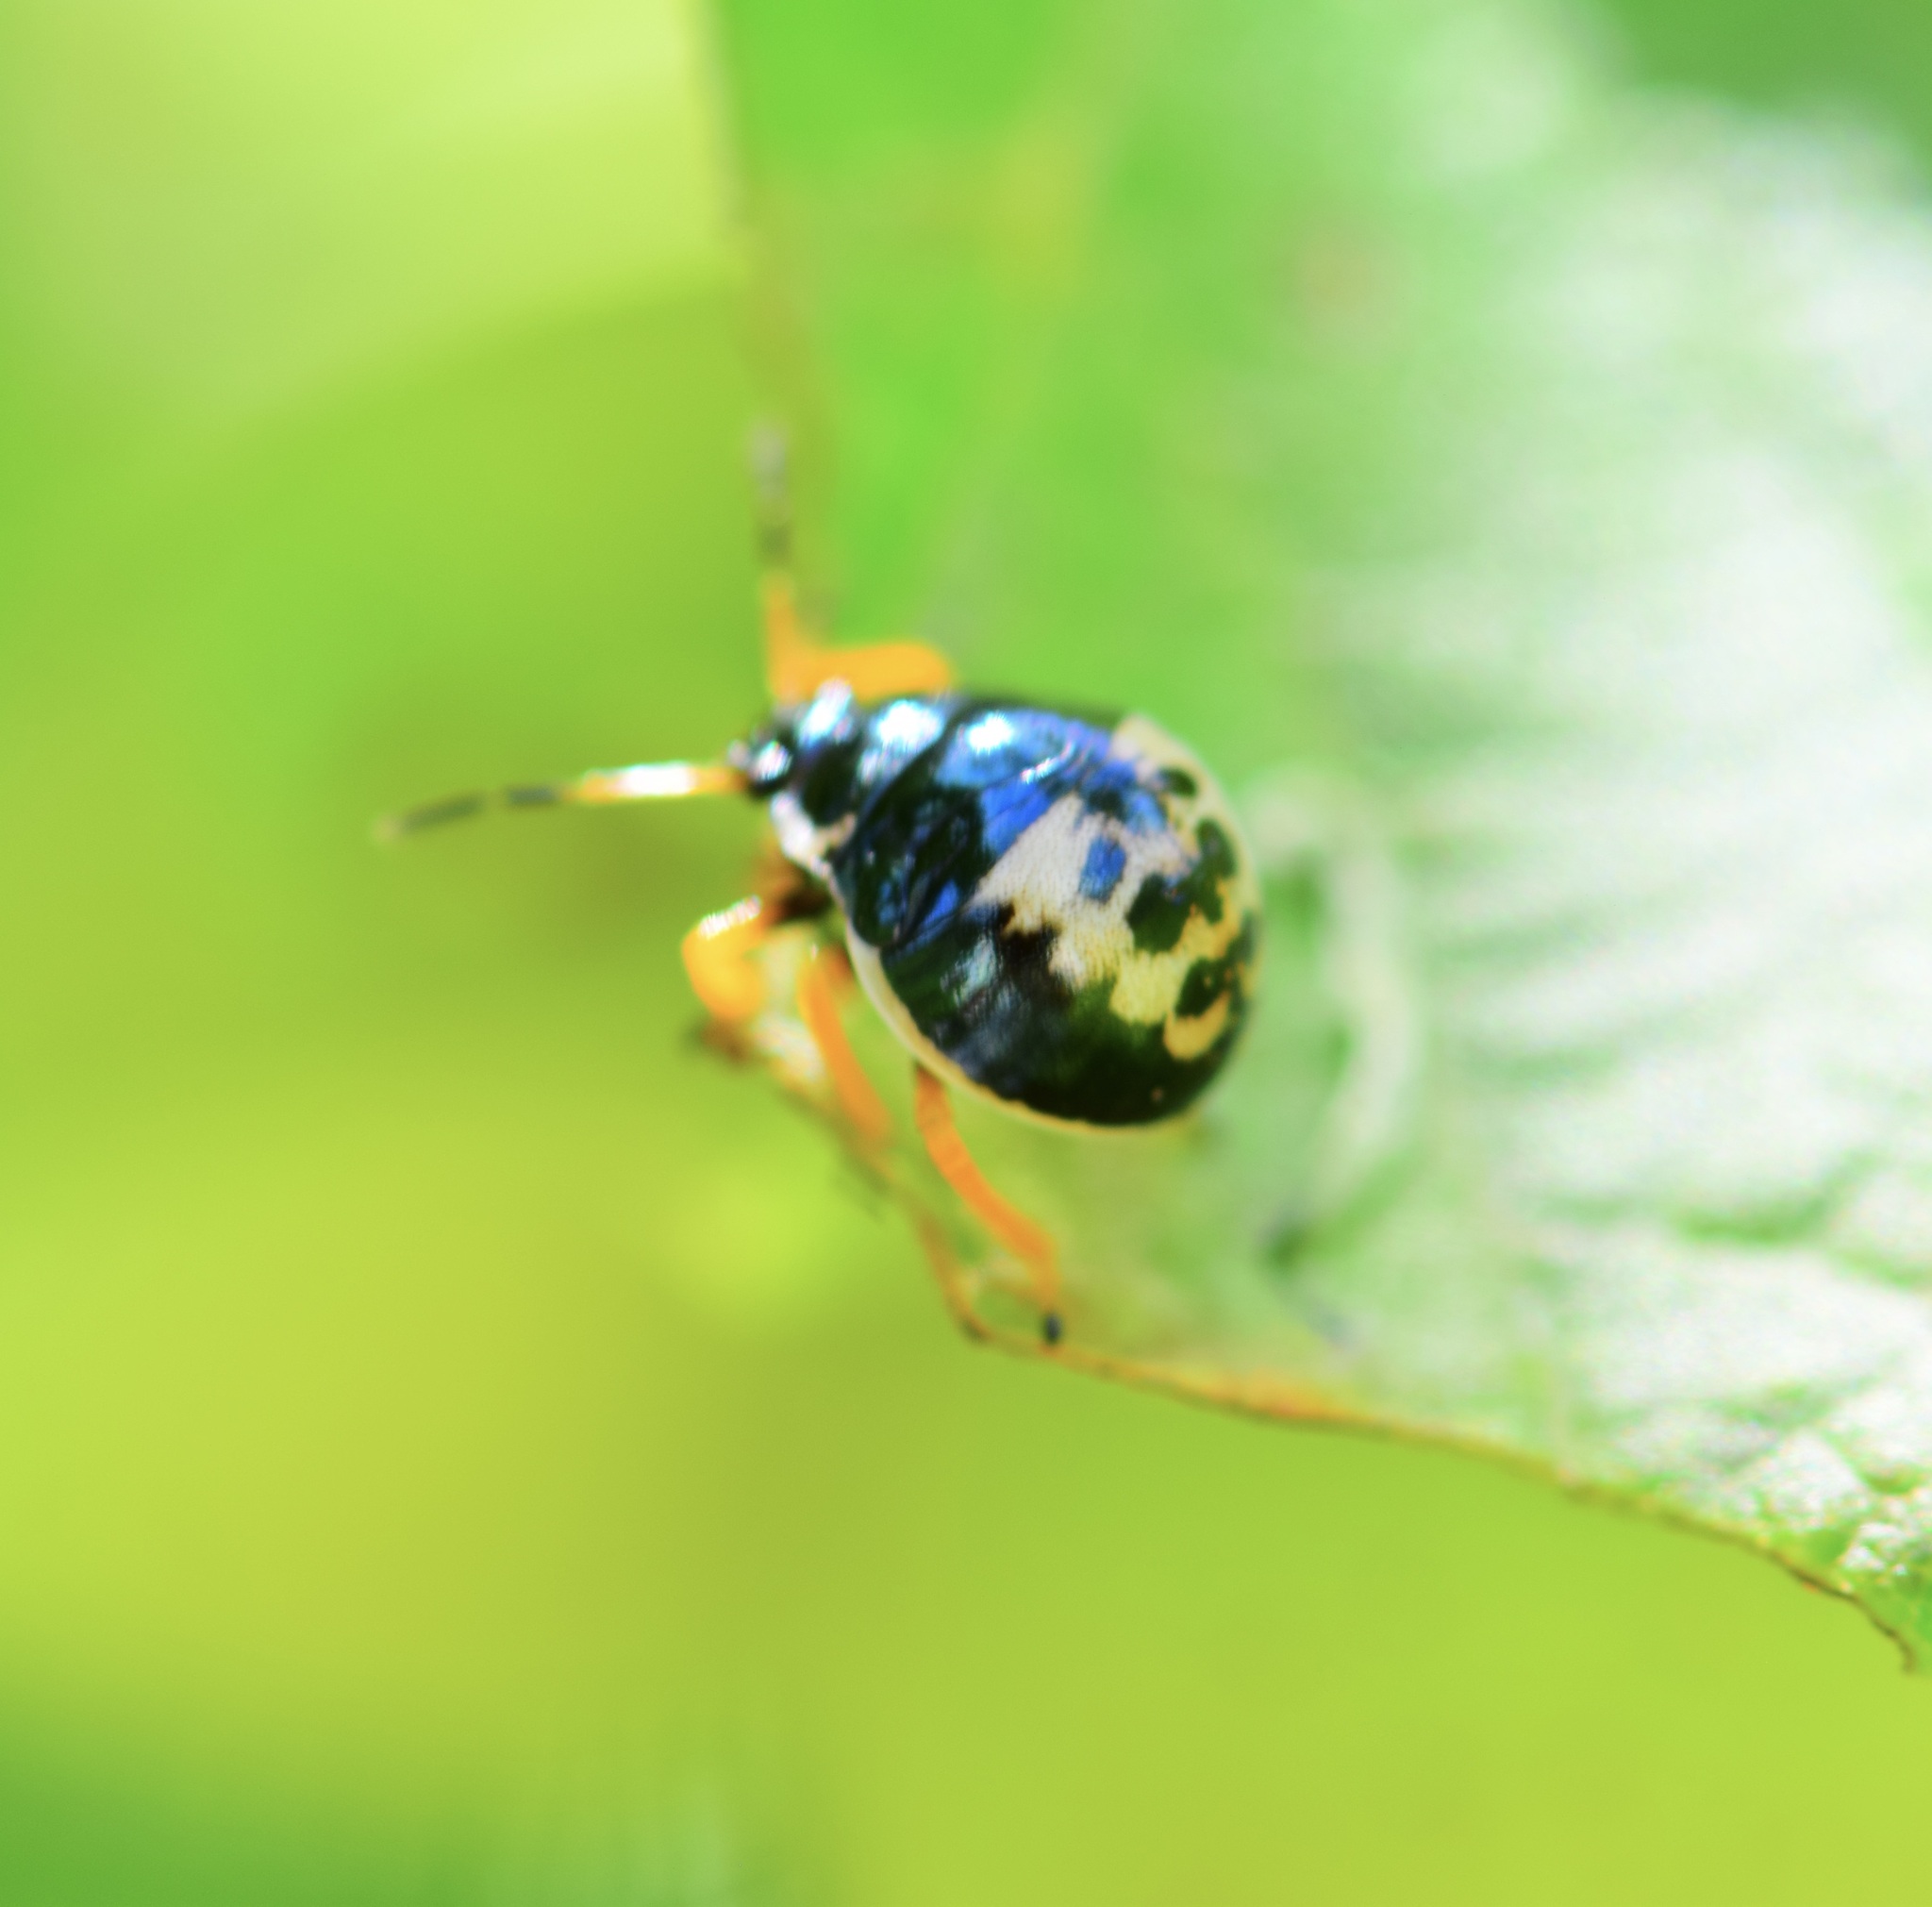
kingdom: Animalia
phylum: Arthropoda
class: Insecta
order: Hemiptera
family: Pentatomidae
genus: Stiretrus
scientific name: Stiretrus anchorago
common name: Anchor stink bug
